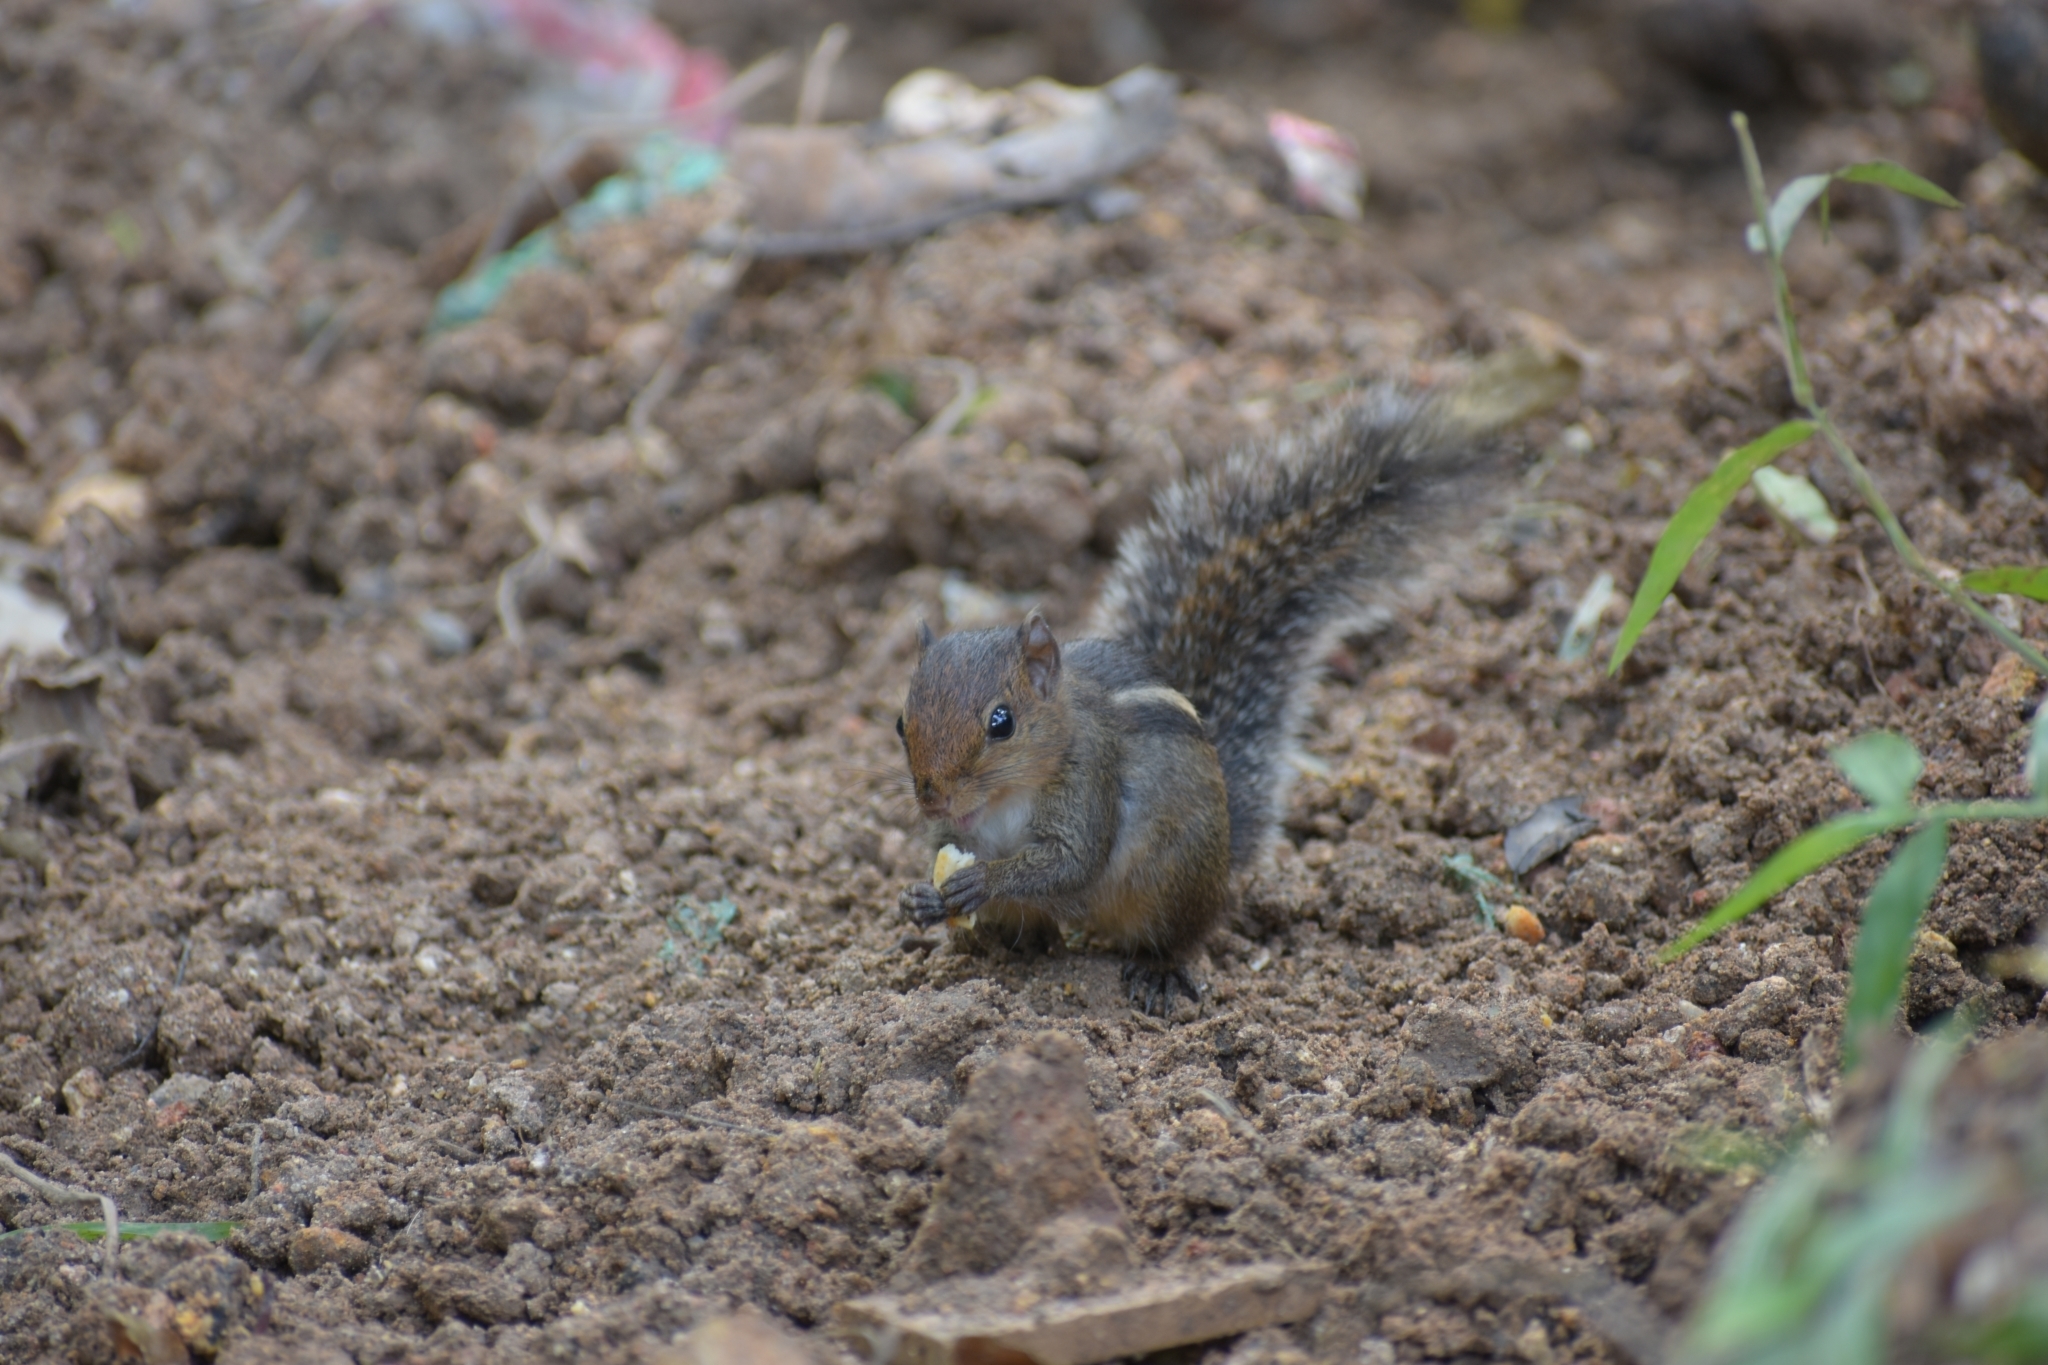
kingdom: Animalia
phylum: Chordata
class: Mammalia
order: Rodentia
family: Sciuridae
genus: Funambulus
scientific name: Funambulus tristriatus
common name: Jungle palm squirrel
